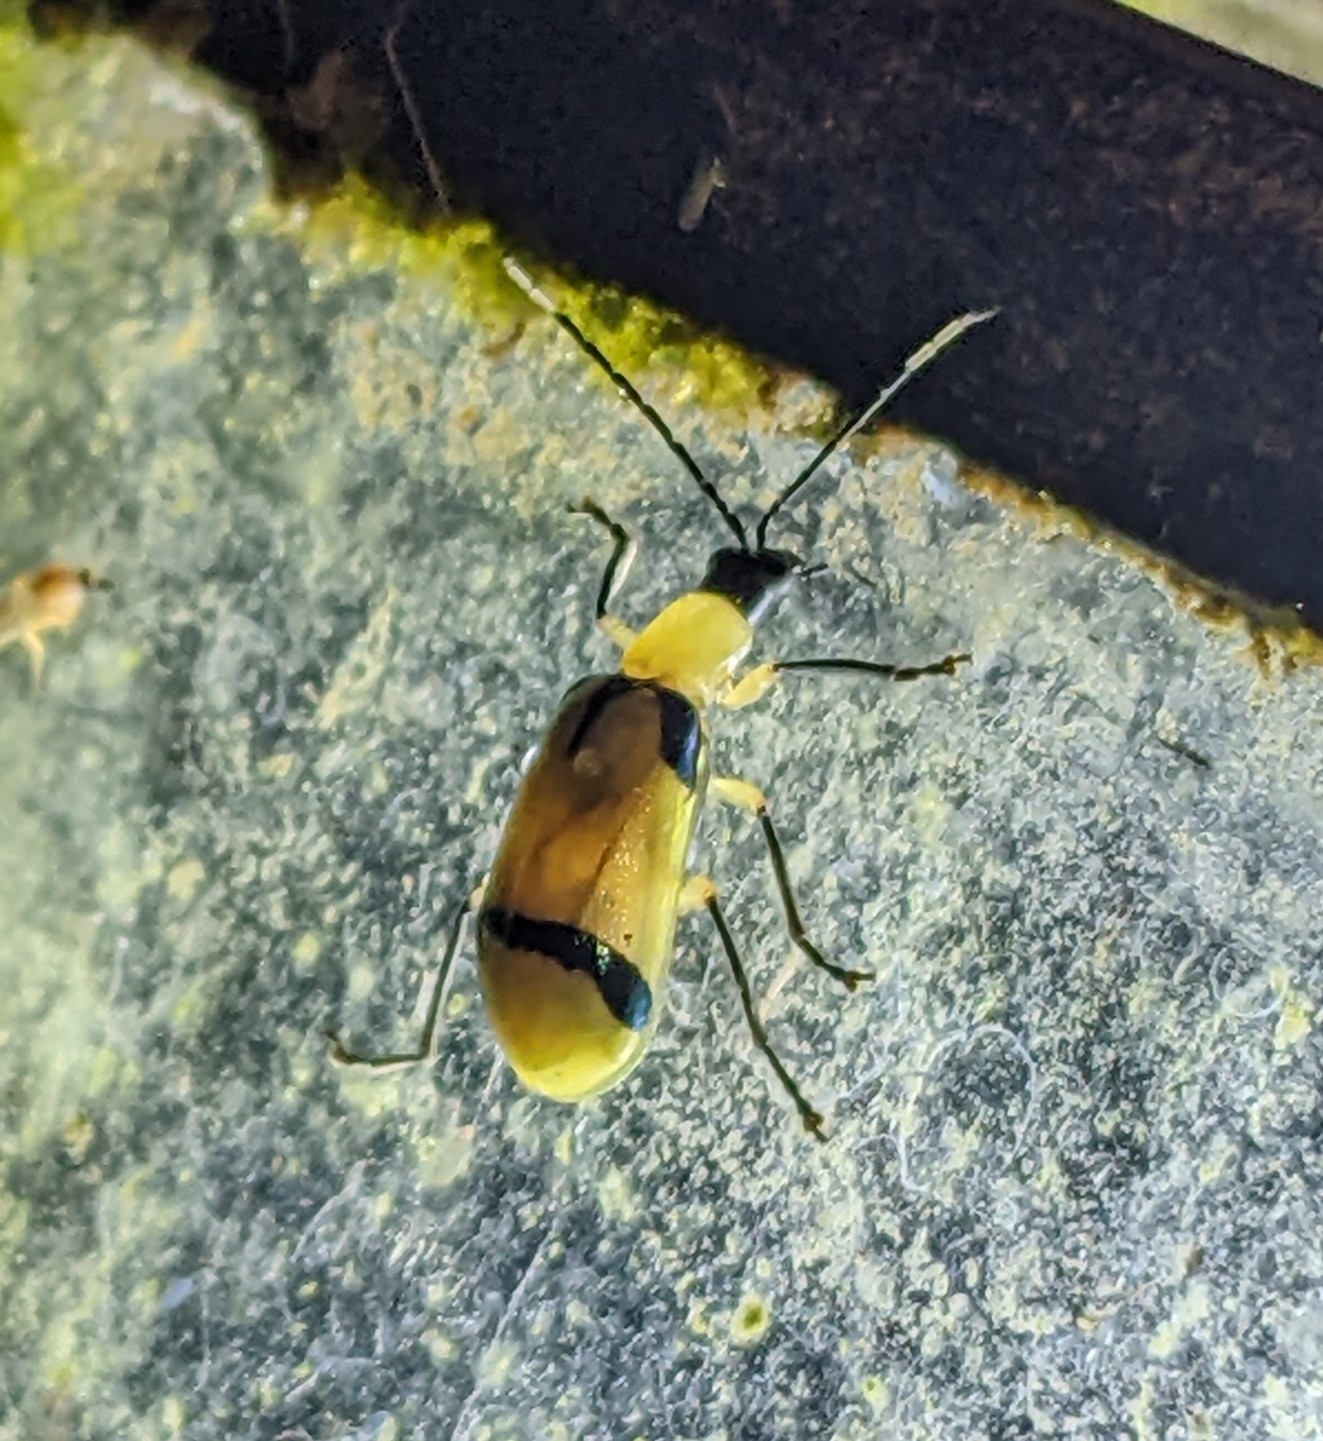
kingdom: Animalia
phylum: Arthropoda
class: Insecta
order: Coleoptera
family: Chrysomelidae
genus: Diabrotica
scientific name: Diabrotica
